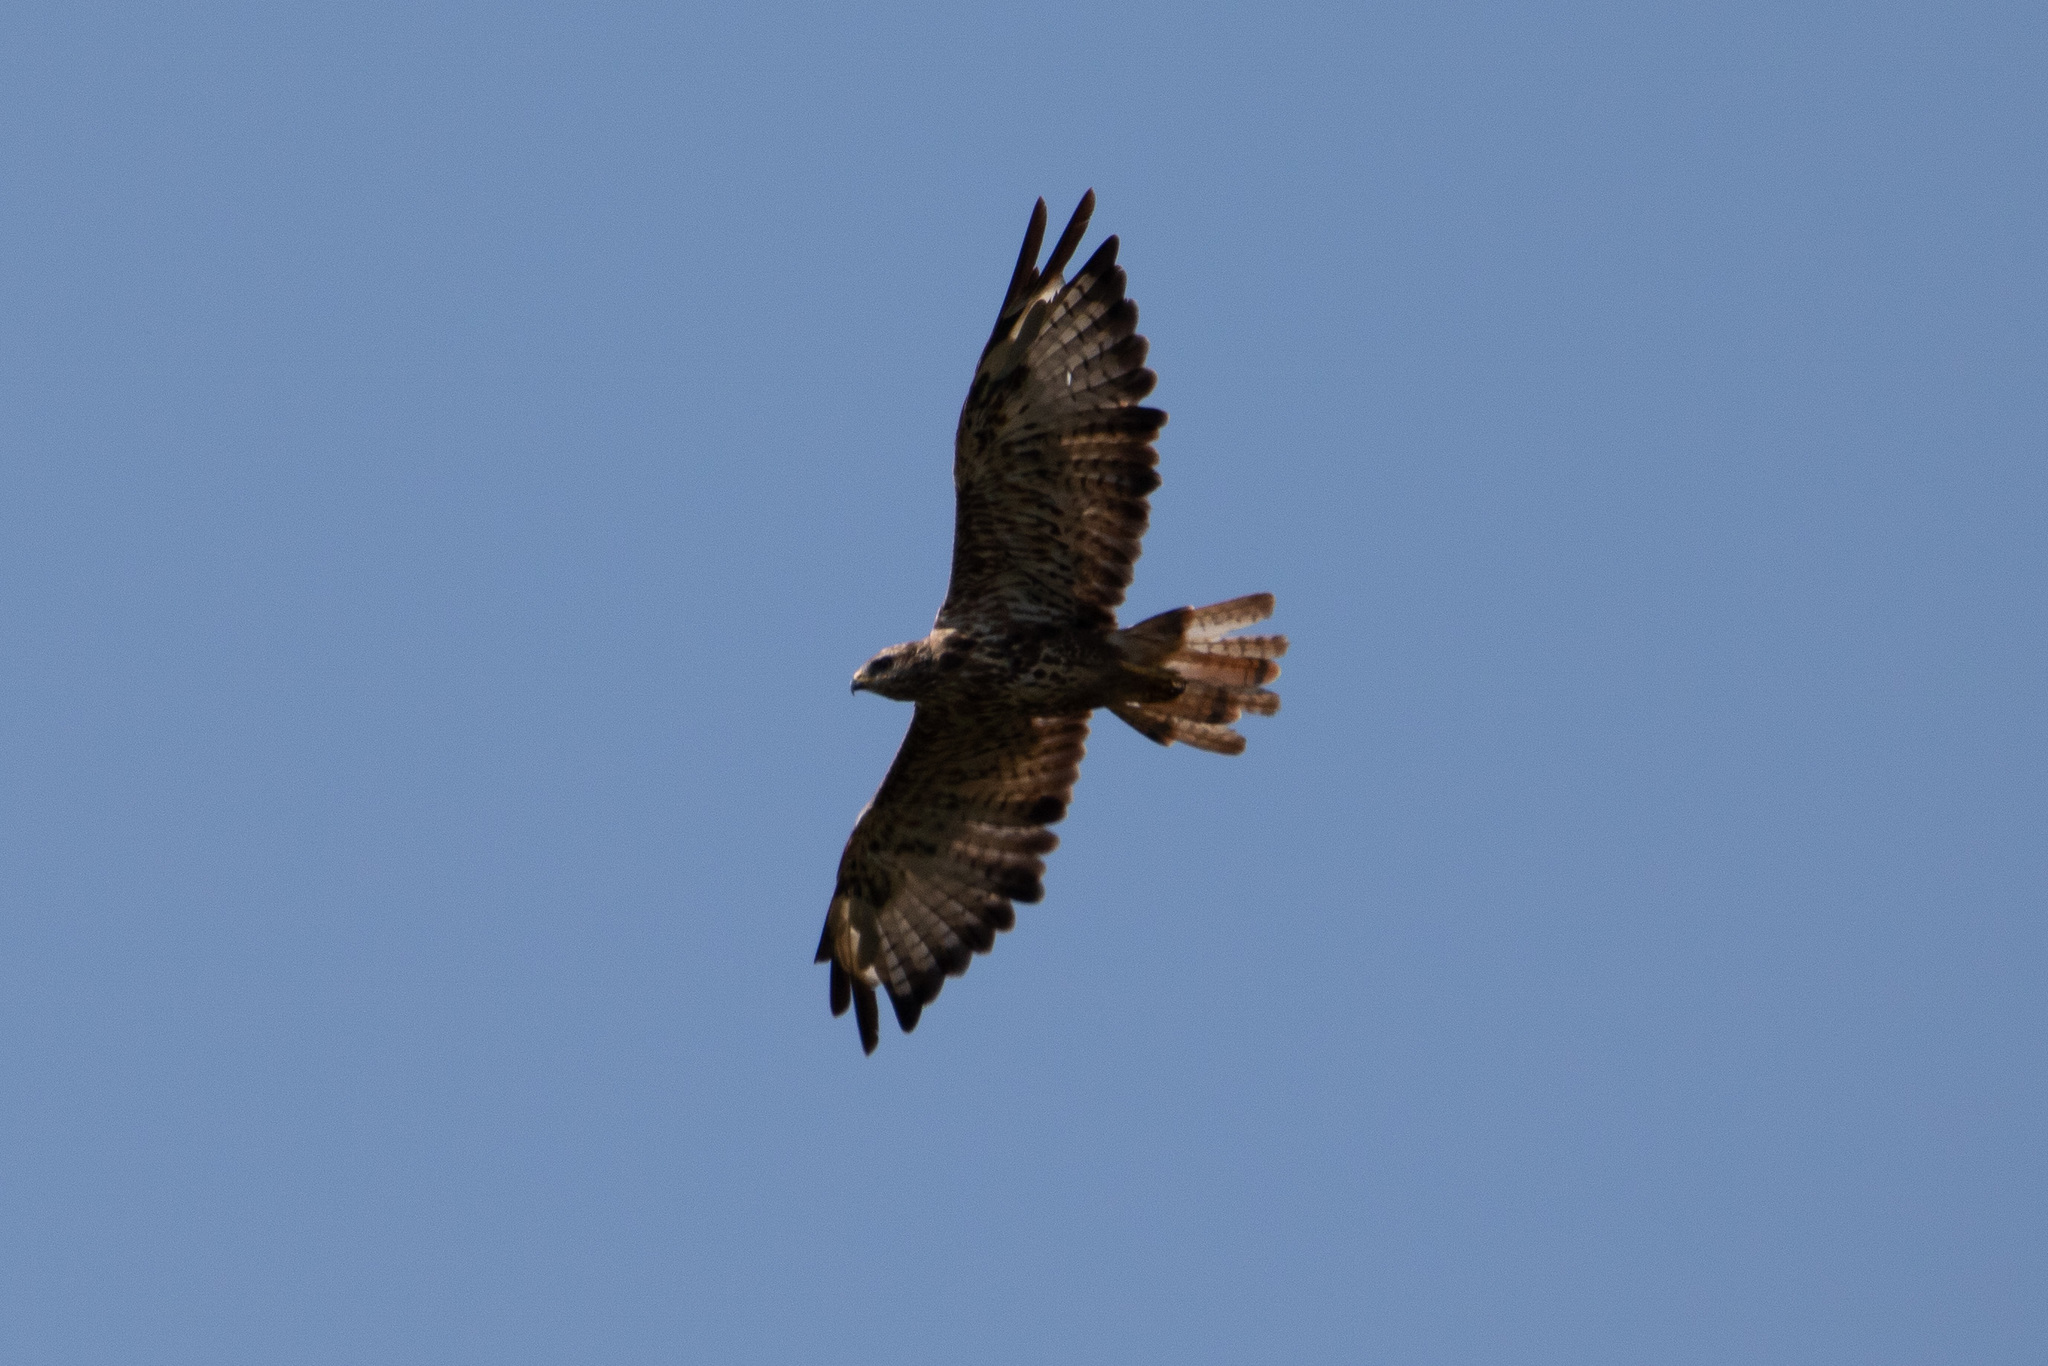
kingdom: Animalia
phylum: Chordata
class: Aves
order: Accipitriformes
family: Accipitridae
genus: Buteo
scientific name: Buteo buteo
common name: Common buzzard
